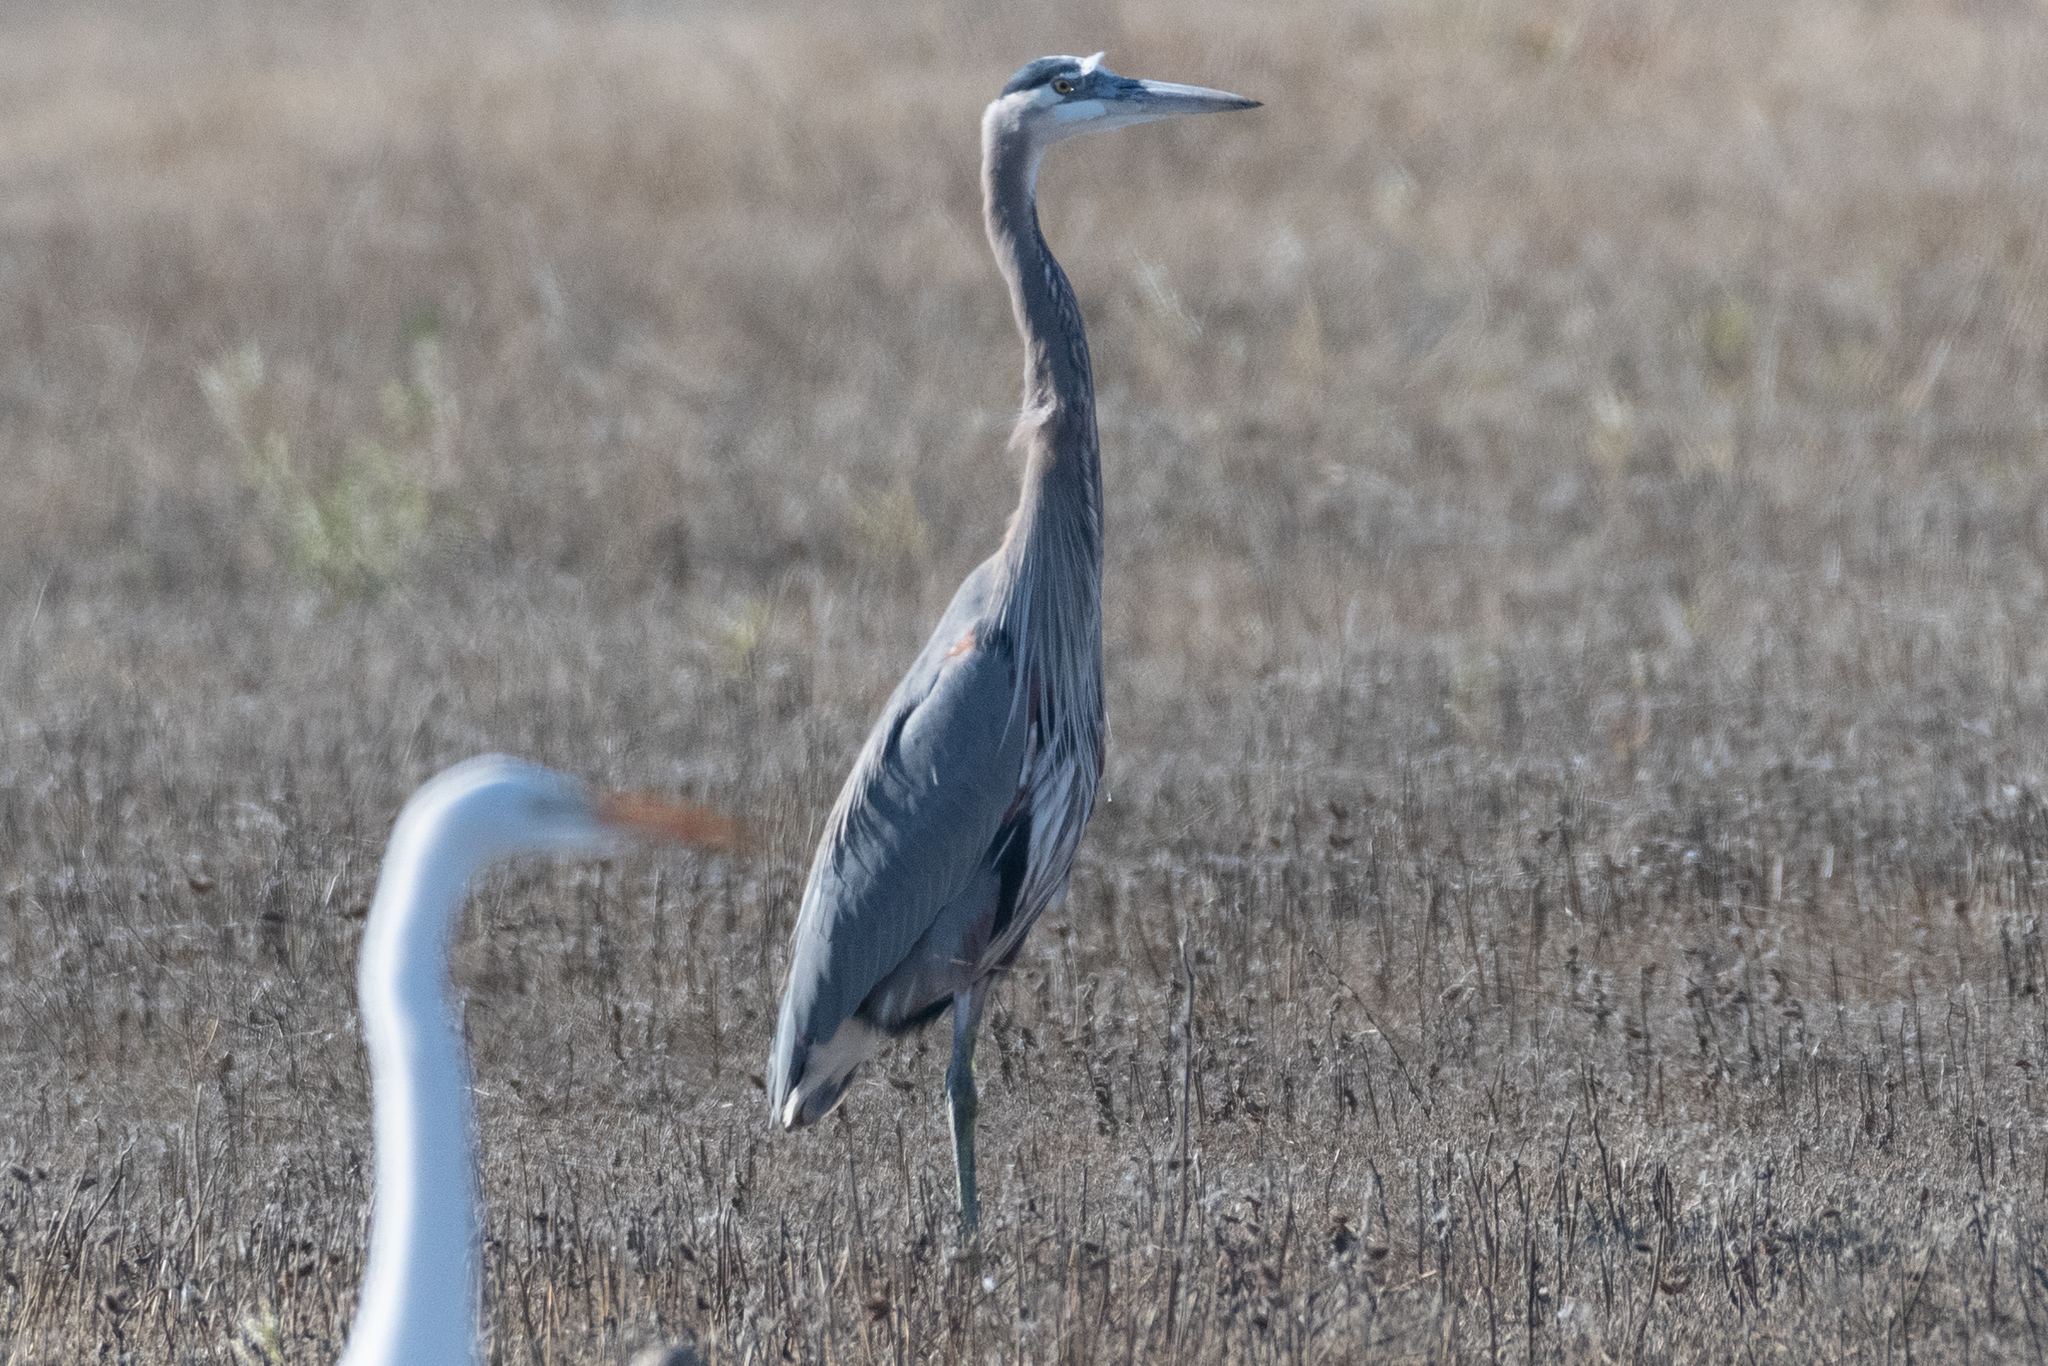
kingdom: Animalia
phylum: Chordata
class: Aves
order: Pelecaniformes
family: Ardeidae
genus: Ardea
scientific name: Ardea herodias
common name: Great blue heron
